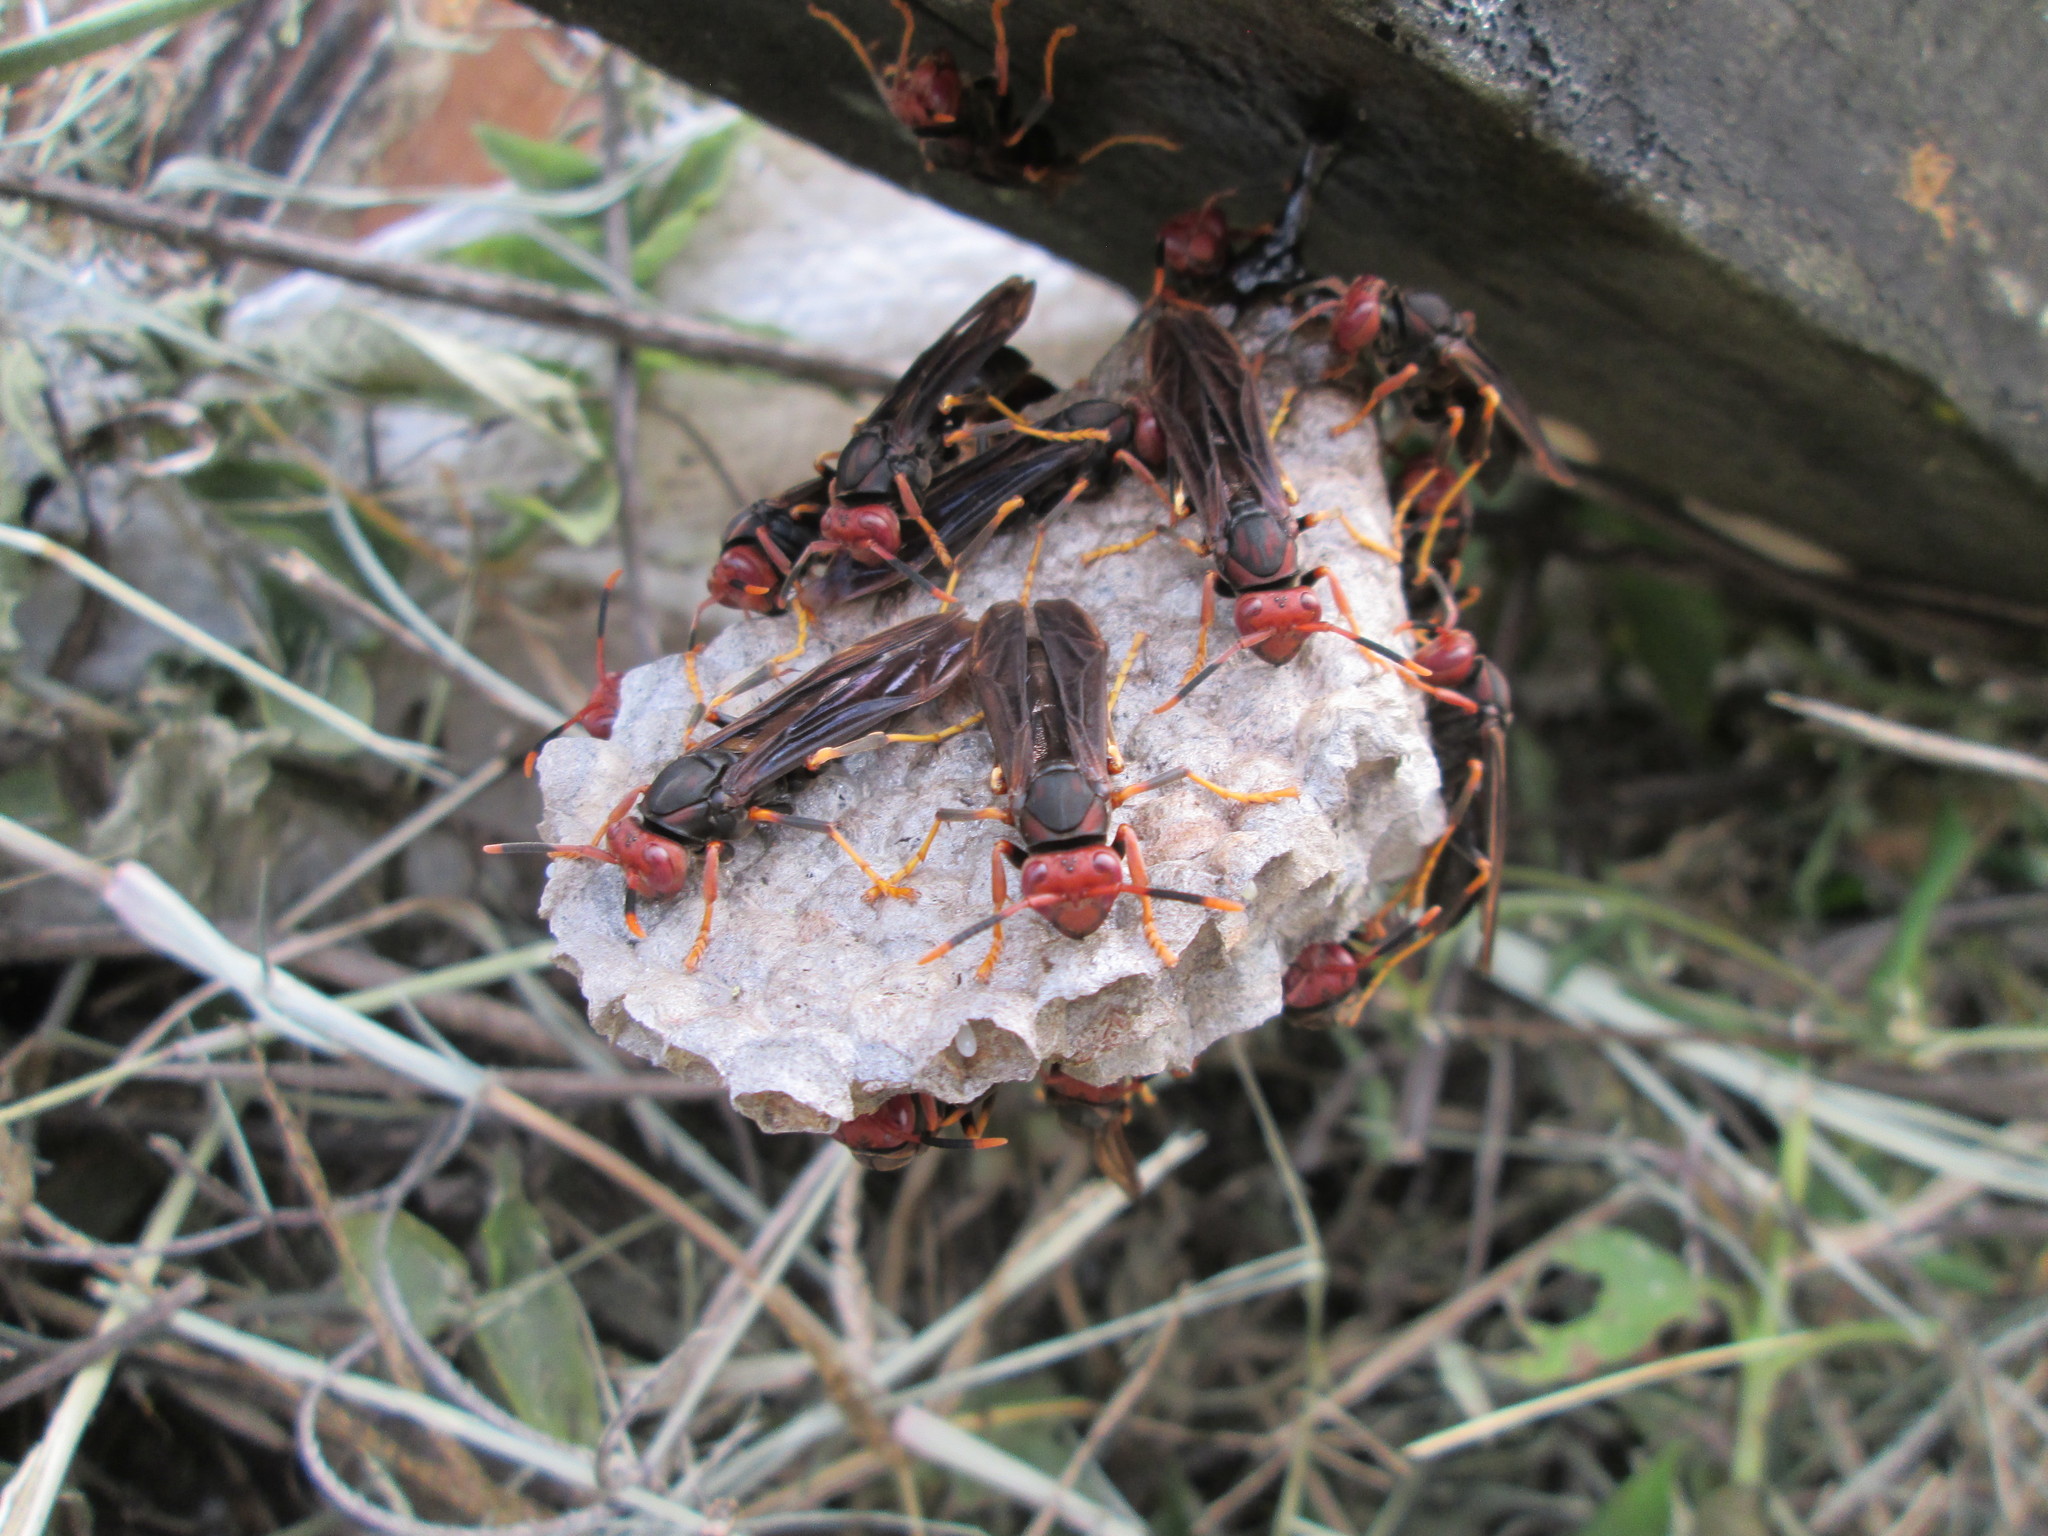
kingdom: Animalia
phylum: Arthropoda
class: Insecta
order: Hymenoptera
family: Eumenidae
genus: Polistes
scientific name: Polistes erythrocephalus
